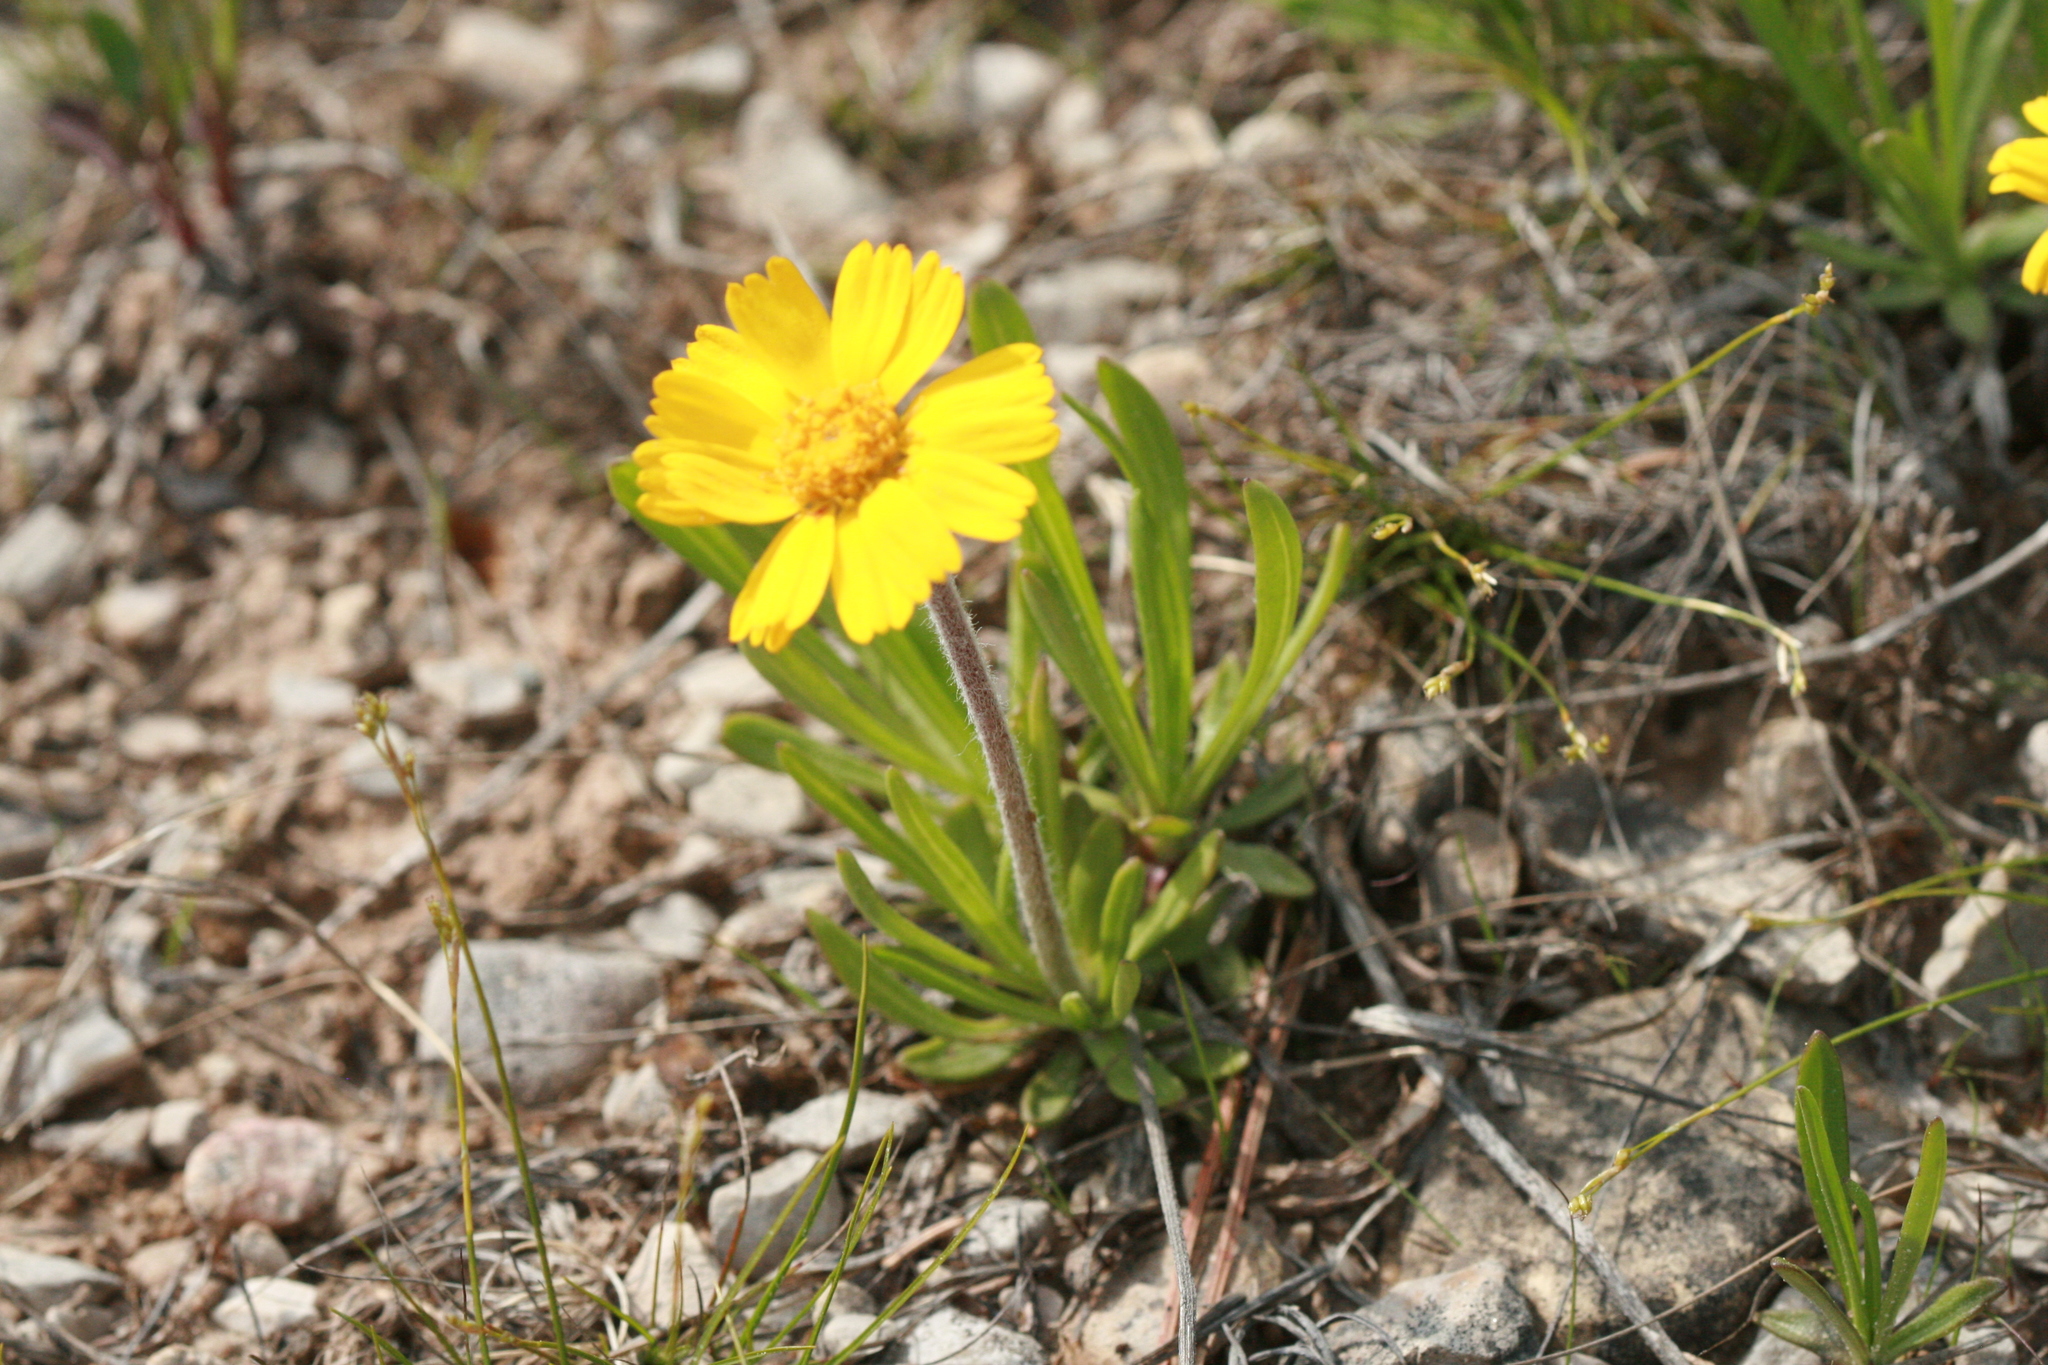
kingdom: Plantae
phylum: Tracheophyta
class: Magnoliopsida
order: Asterales
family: Asteraceae
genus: Tetraneuris
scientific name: Tetraneuris herbacea
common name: Lakeside daisy
